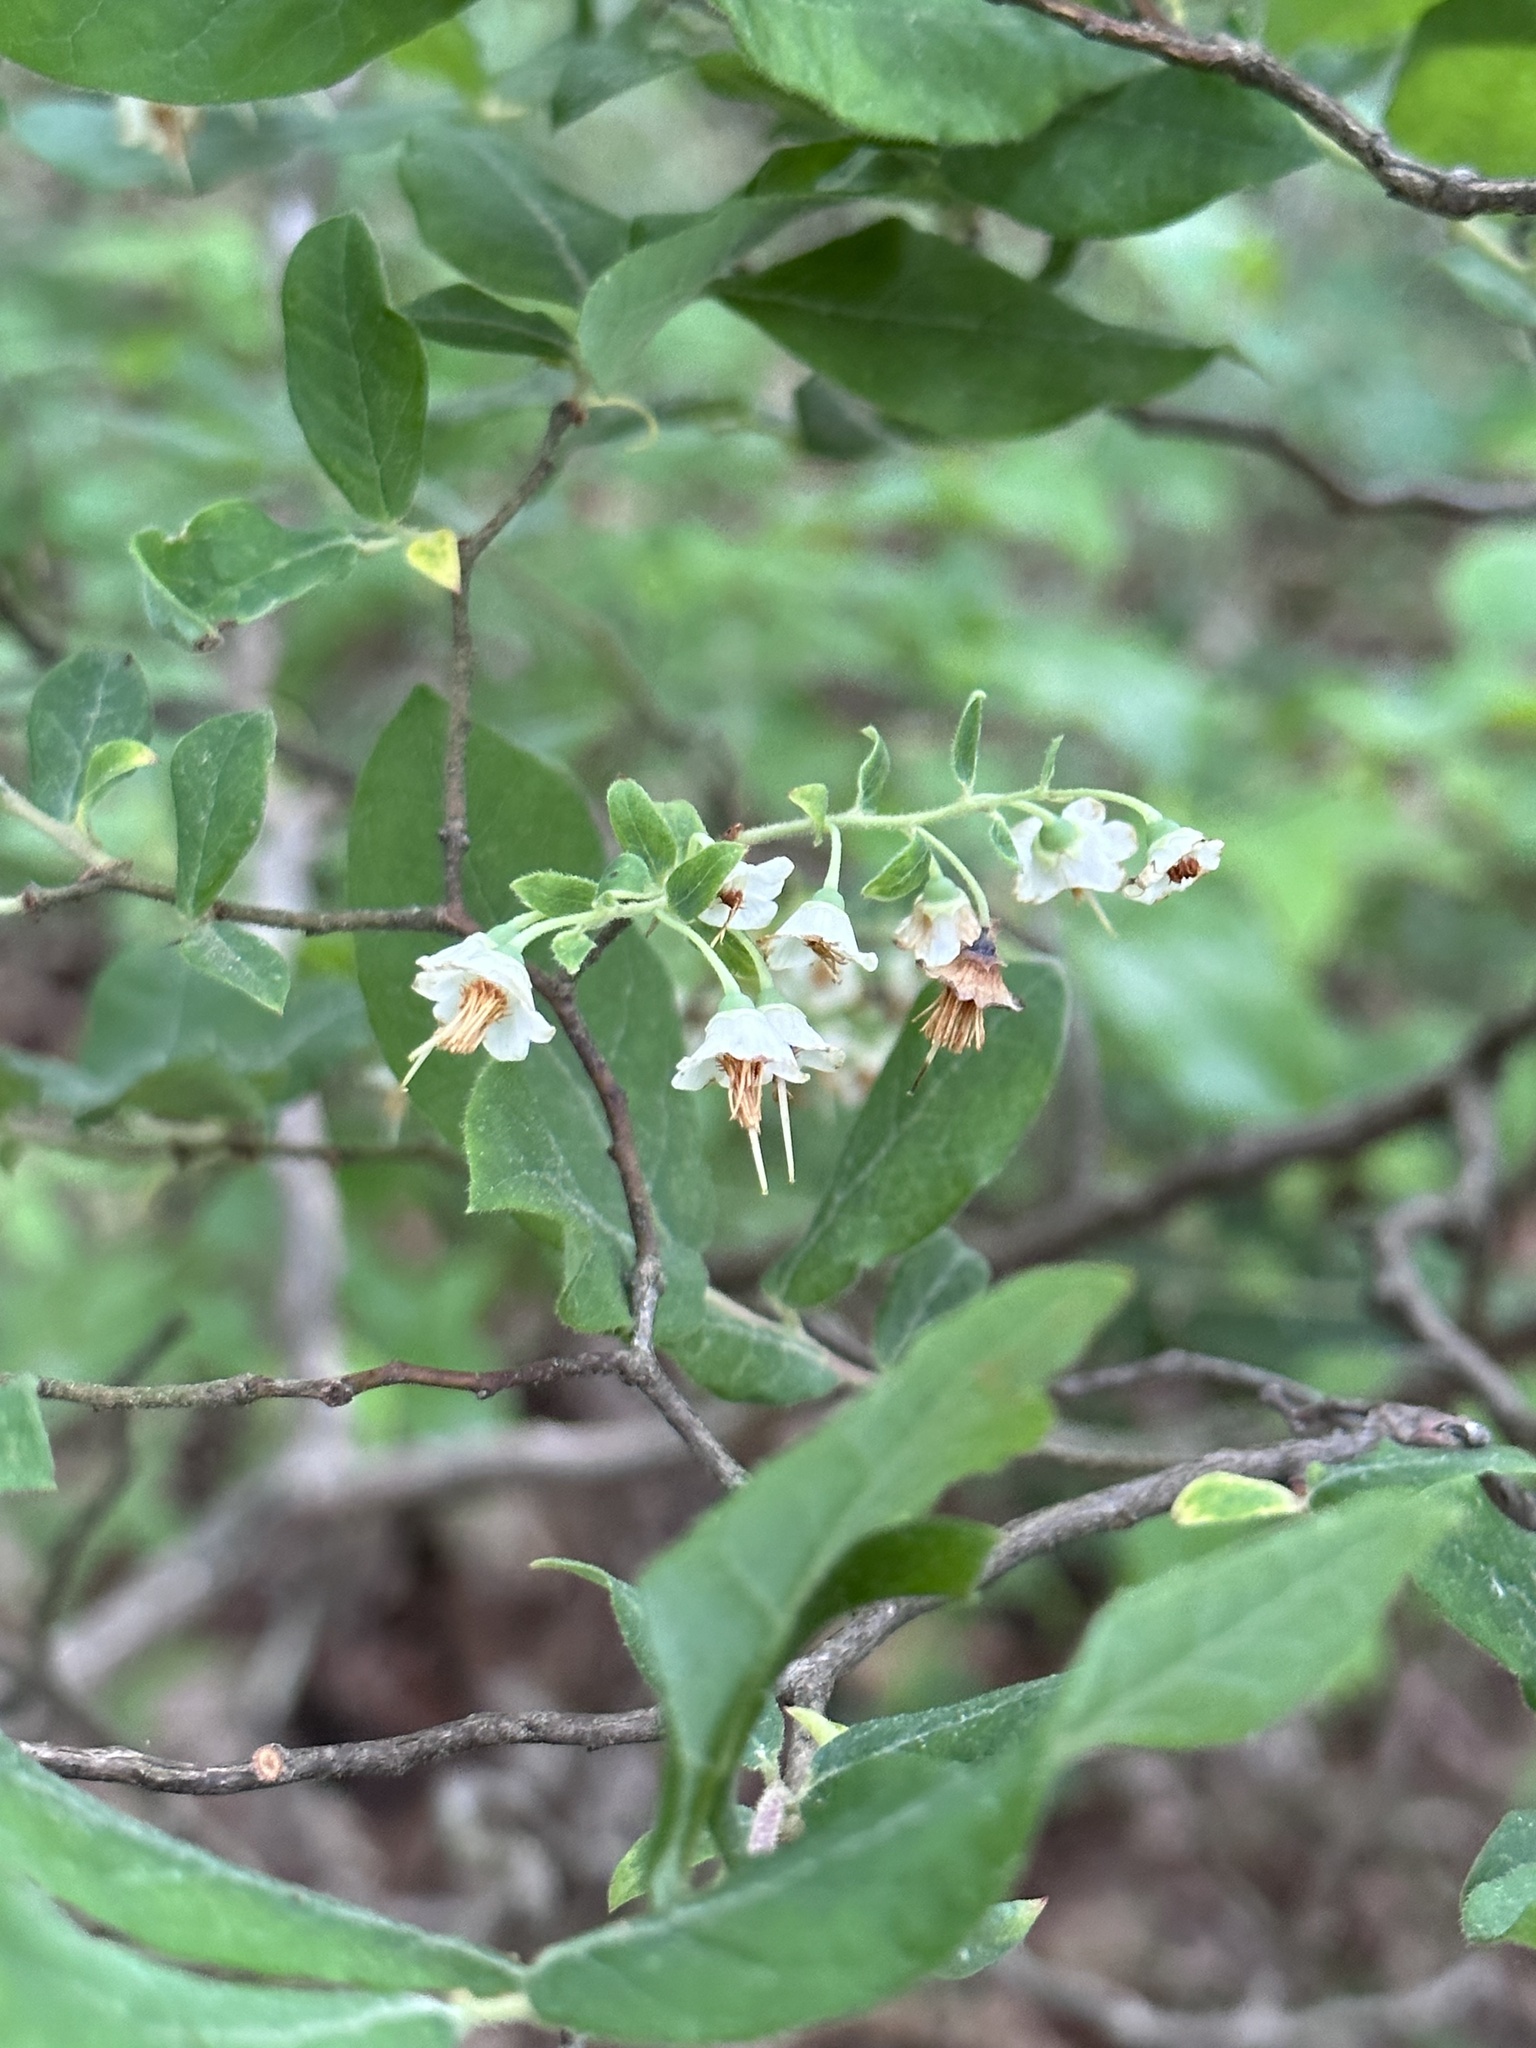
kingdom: Plantae
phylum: Tracheophyta
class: Magnoliopsida
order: Ericales
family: Ericaceae
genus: Vaccinium
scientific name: Vaccinium stamineum
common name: Deerberry
